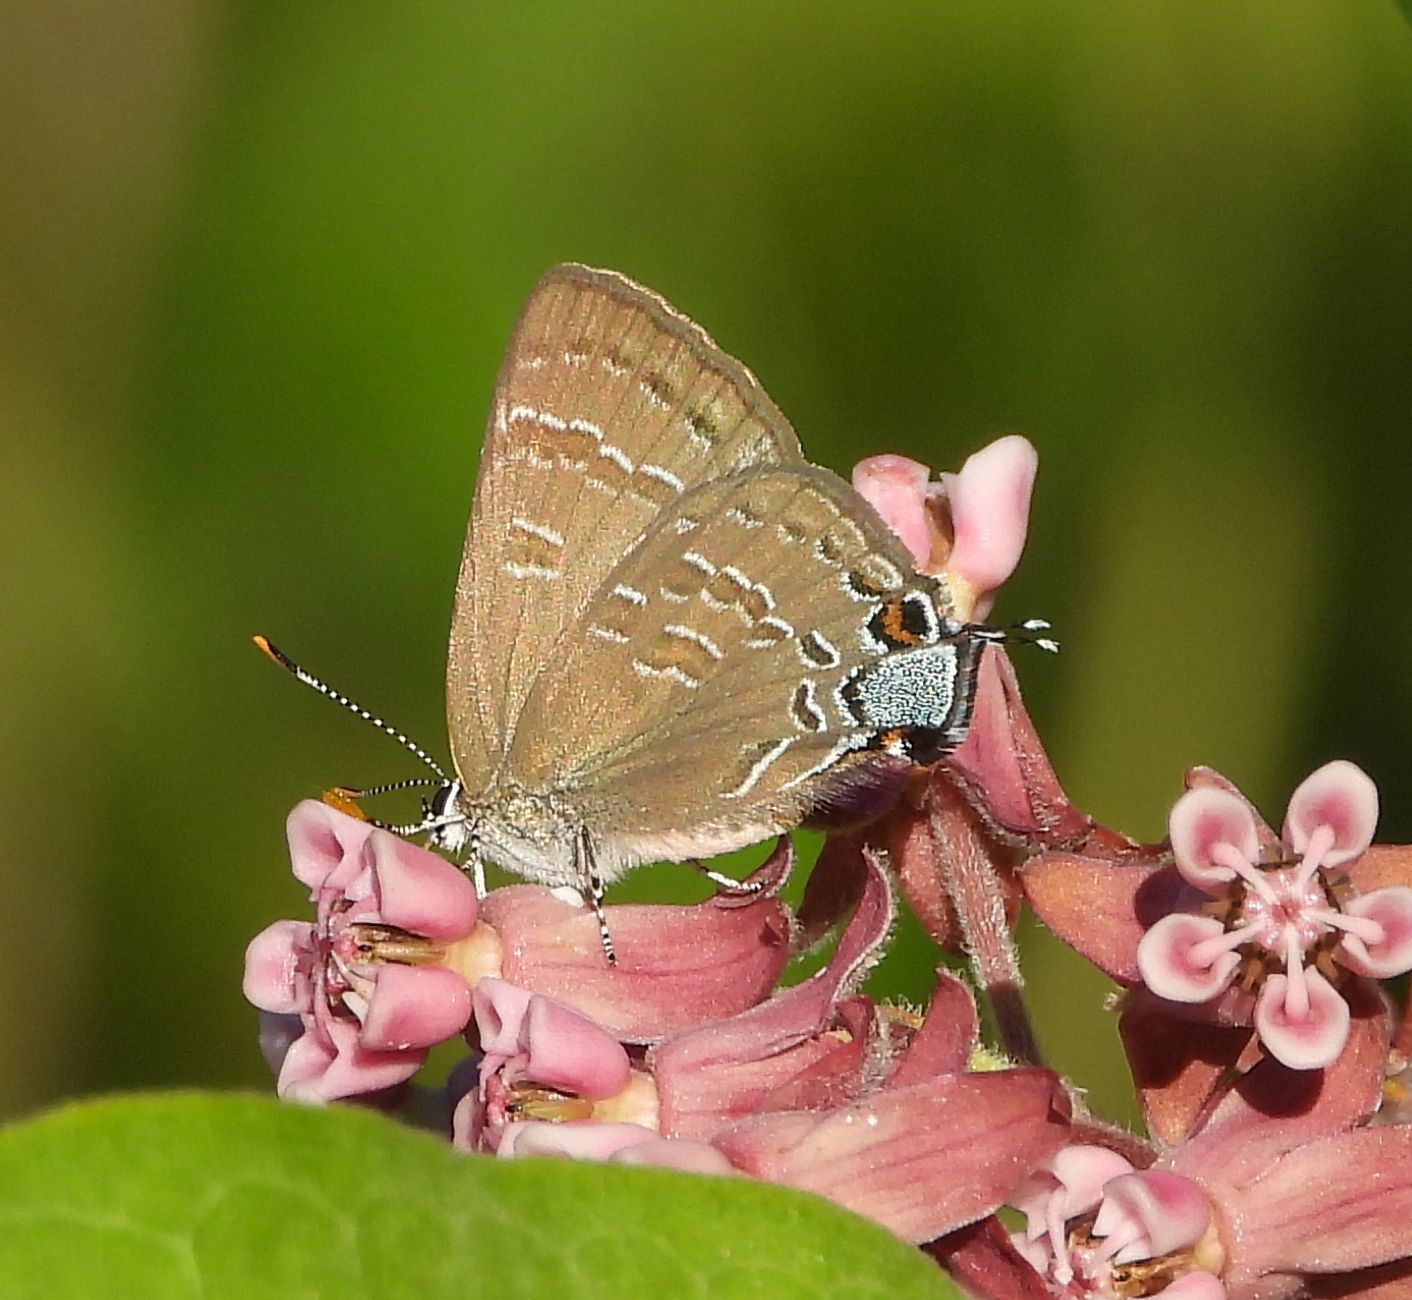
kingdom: Animalia
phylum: Arthropoda
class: Insecta
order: Lepidoptera
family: Lycaenidae
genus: Strymon
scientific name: Strymon caryaevorus
